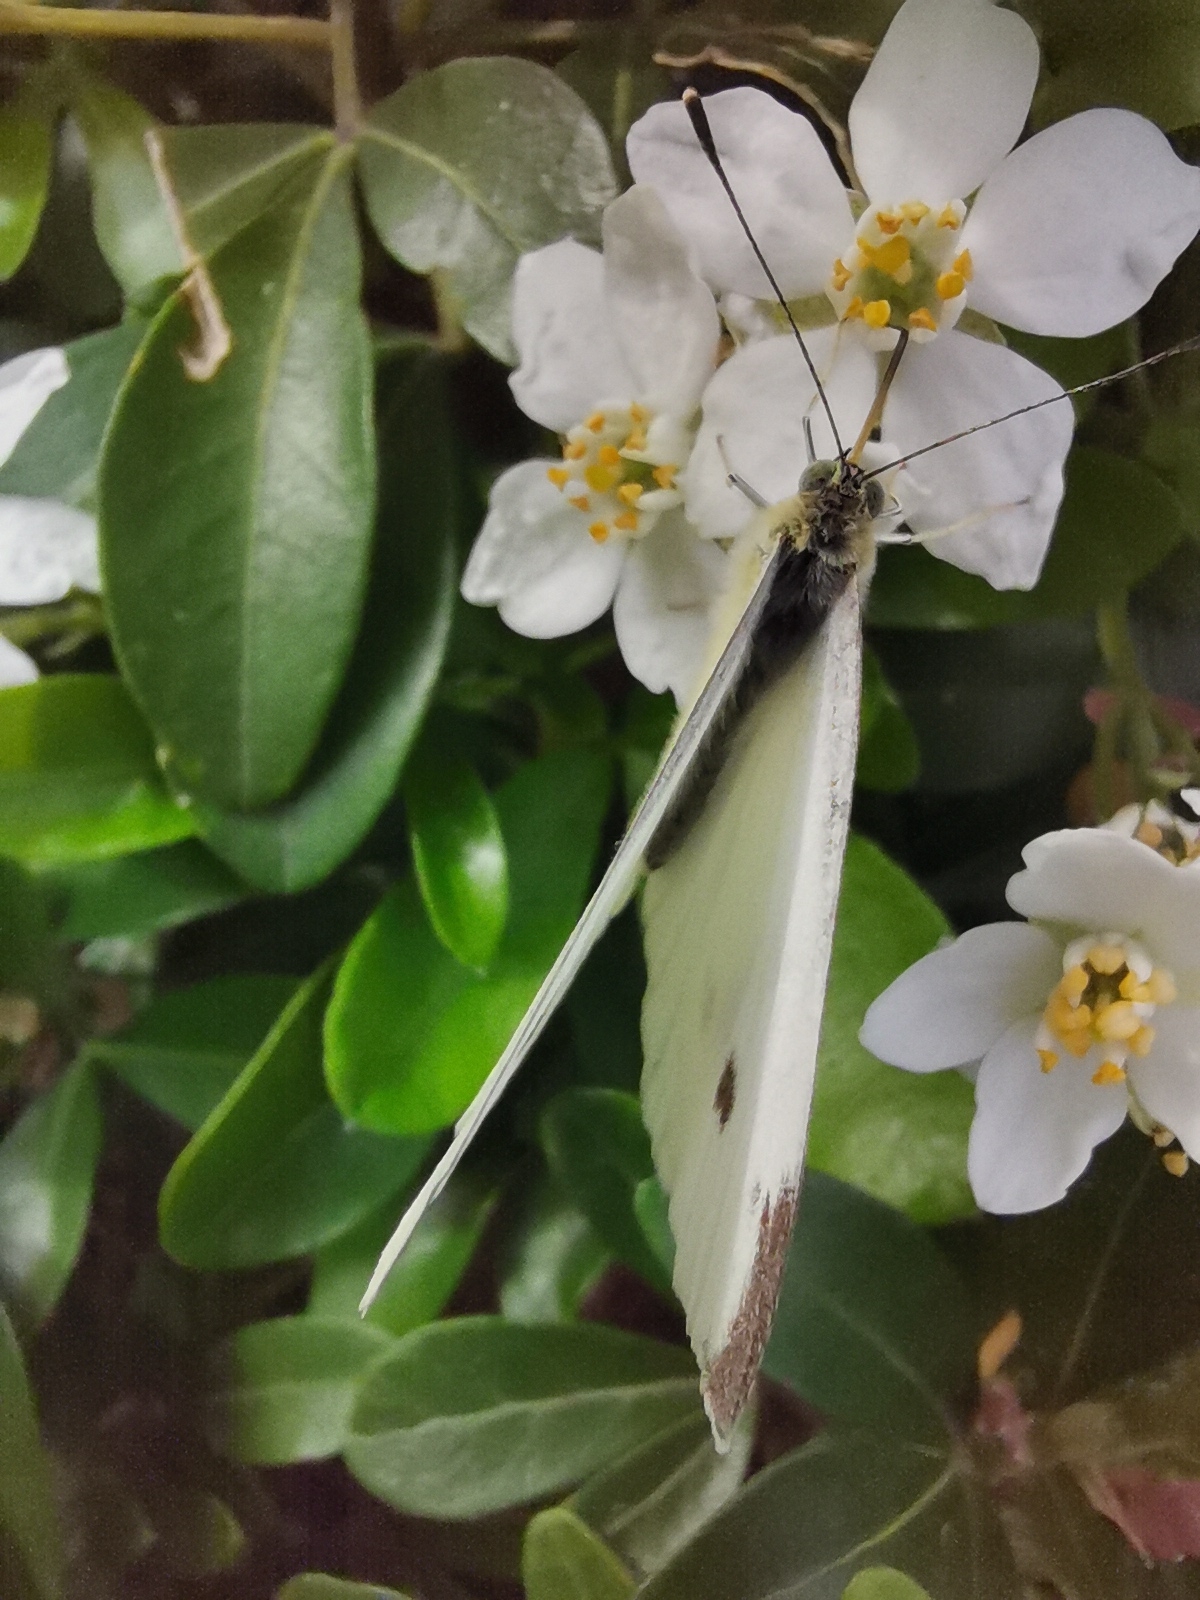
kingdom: Animalia
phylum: Arthropoda
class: Insecta
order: Lepidoptera
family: Pieridae
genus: Pieris
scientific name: Pieris rapae
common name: Small white
